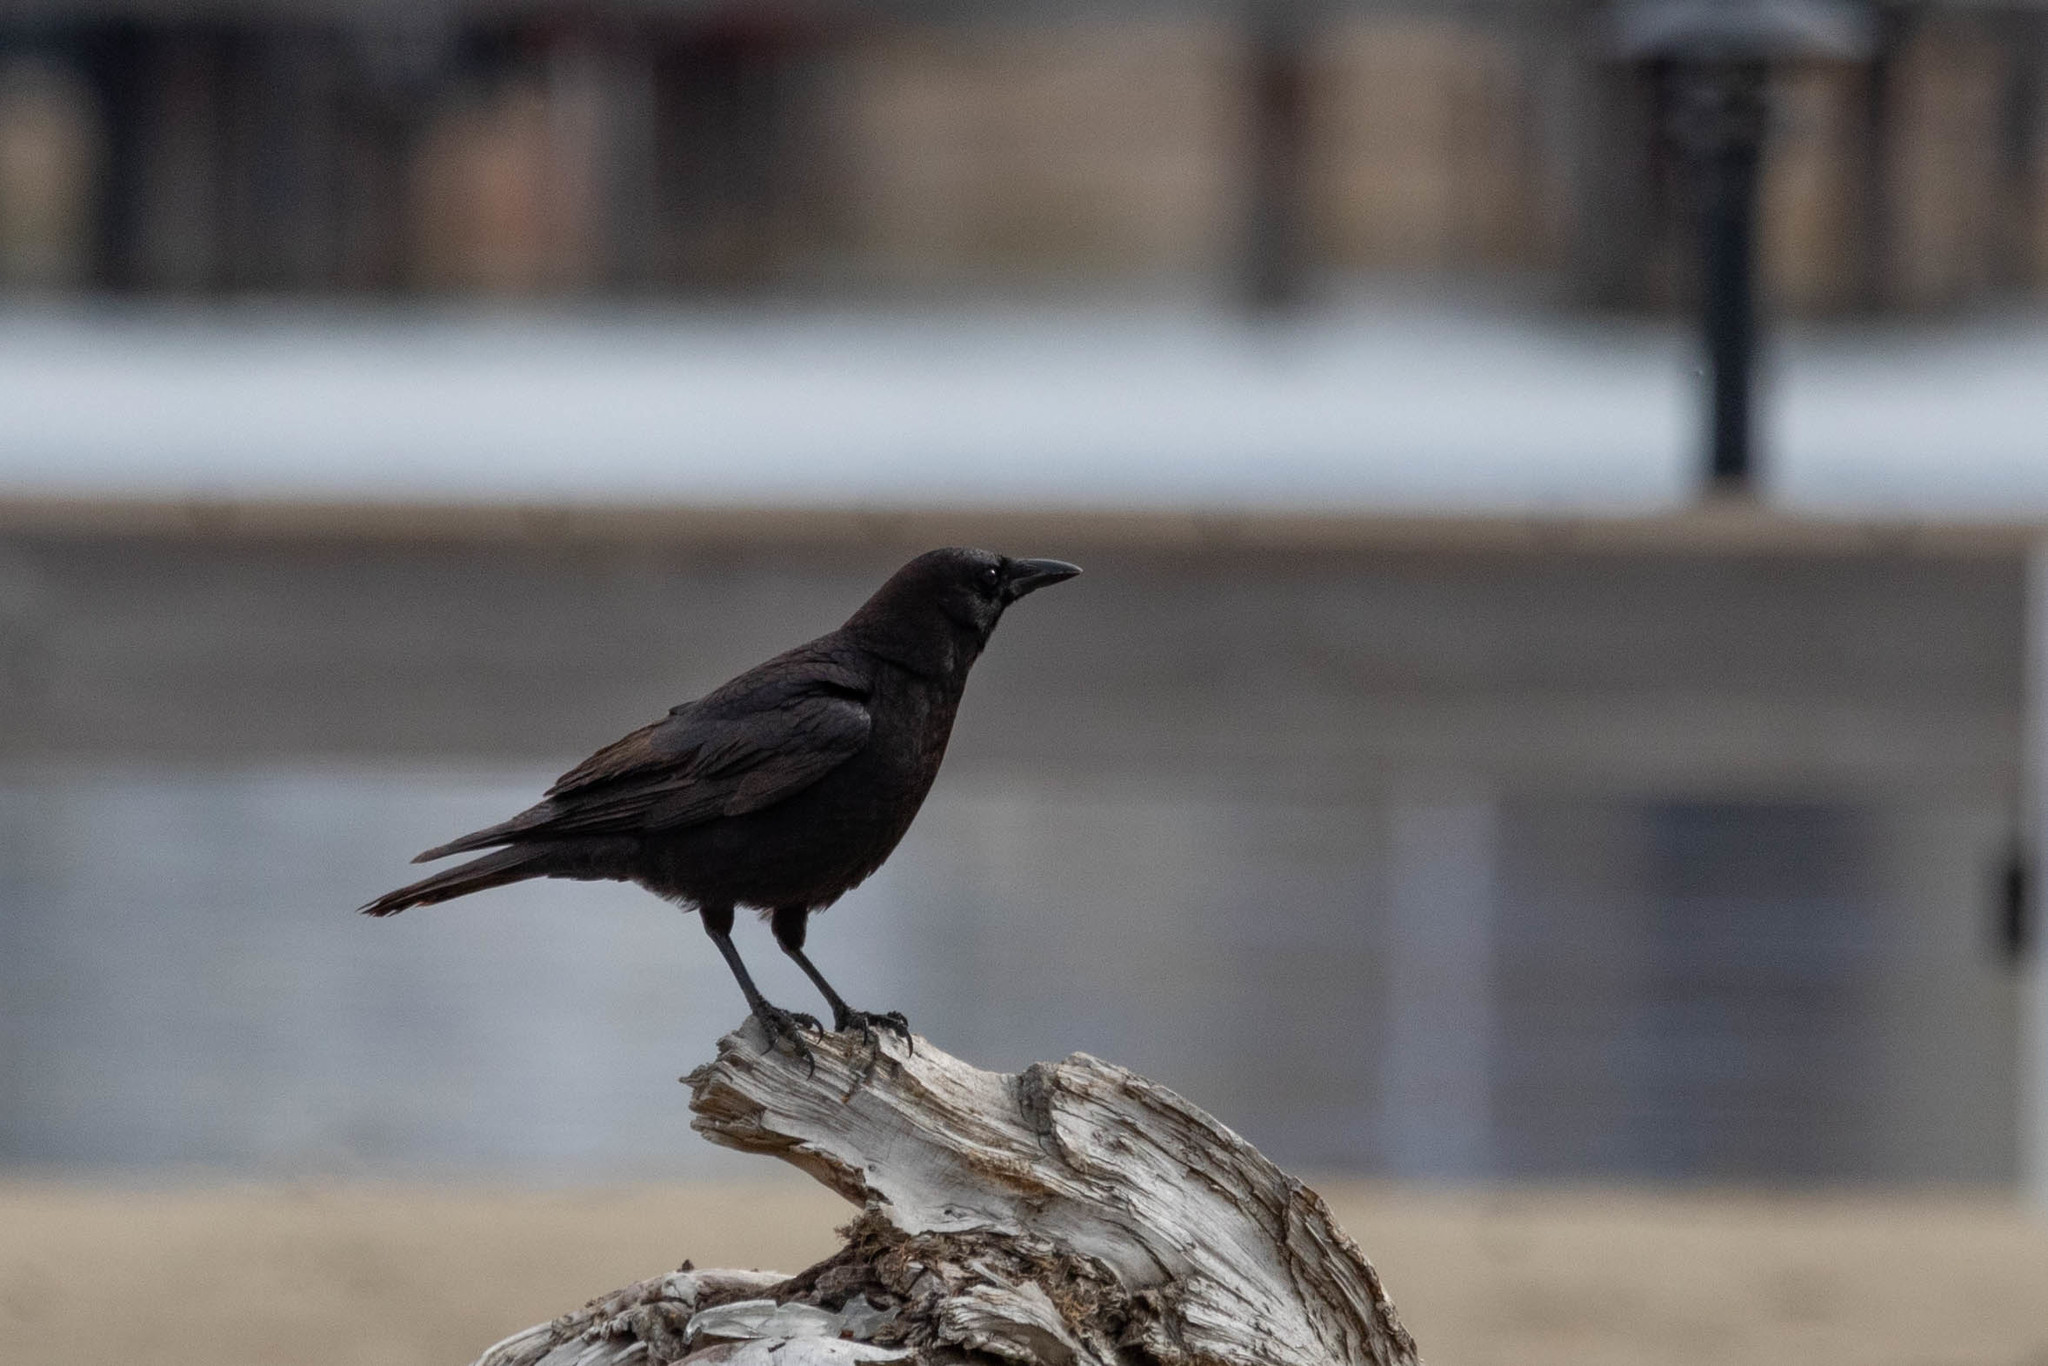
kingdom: Animalia
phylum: Chordata
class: Aves
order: Passeriformes
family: Corvidae
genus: Corvus
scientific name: Corvus brachyrhynchos
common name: American crow
